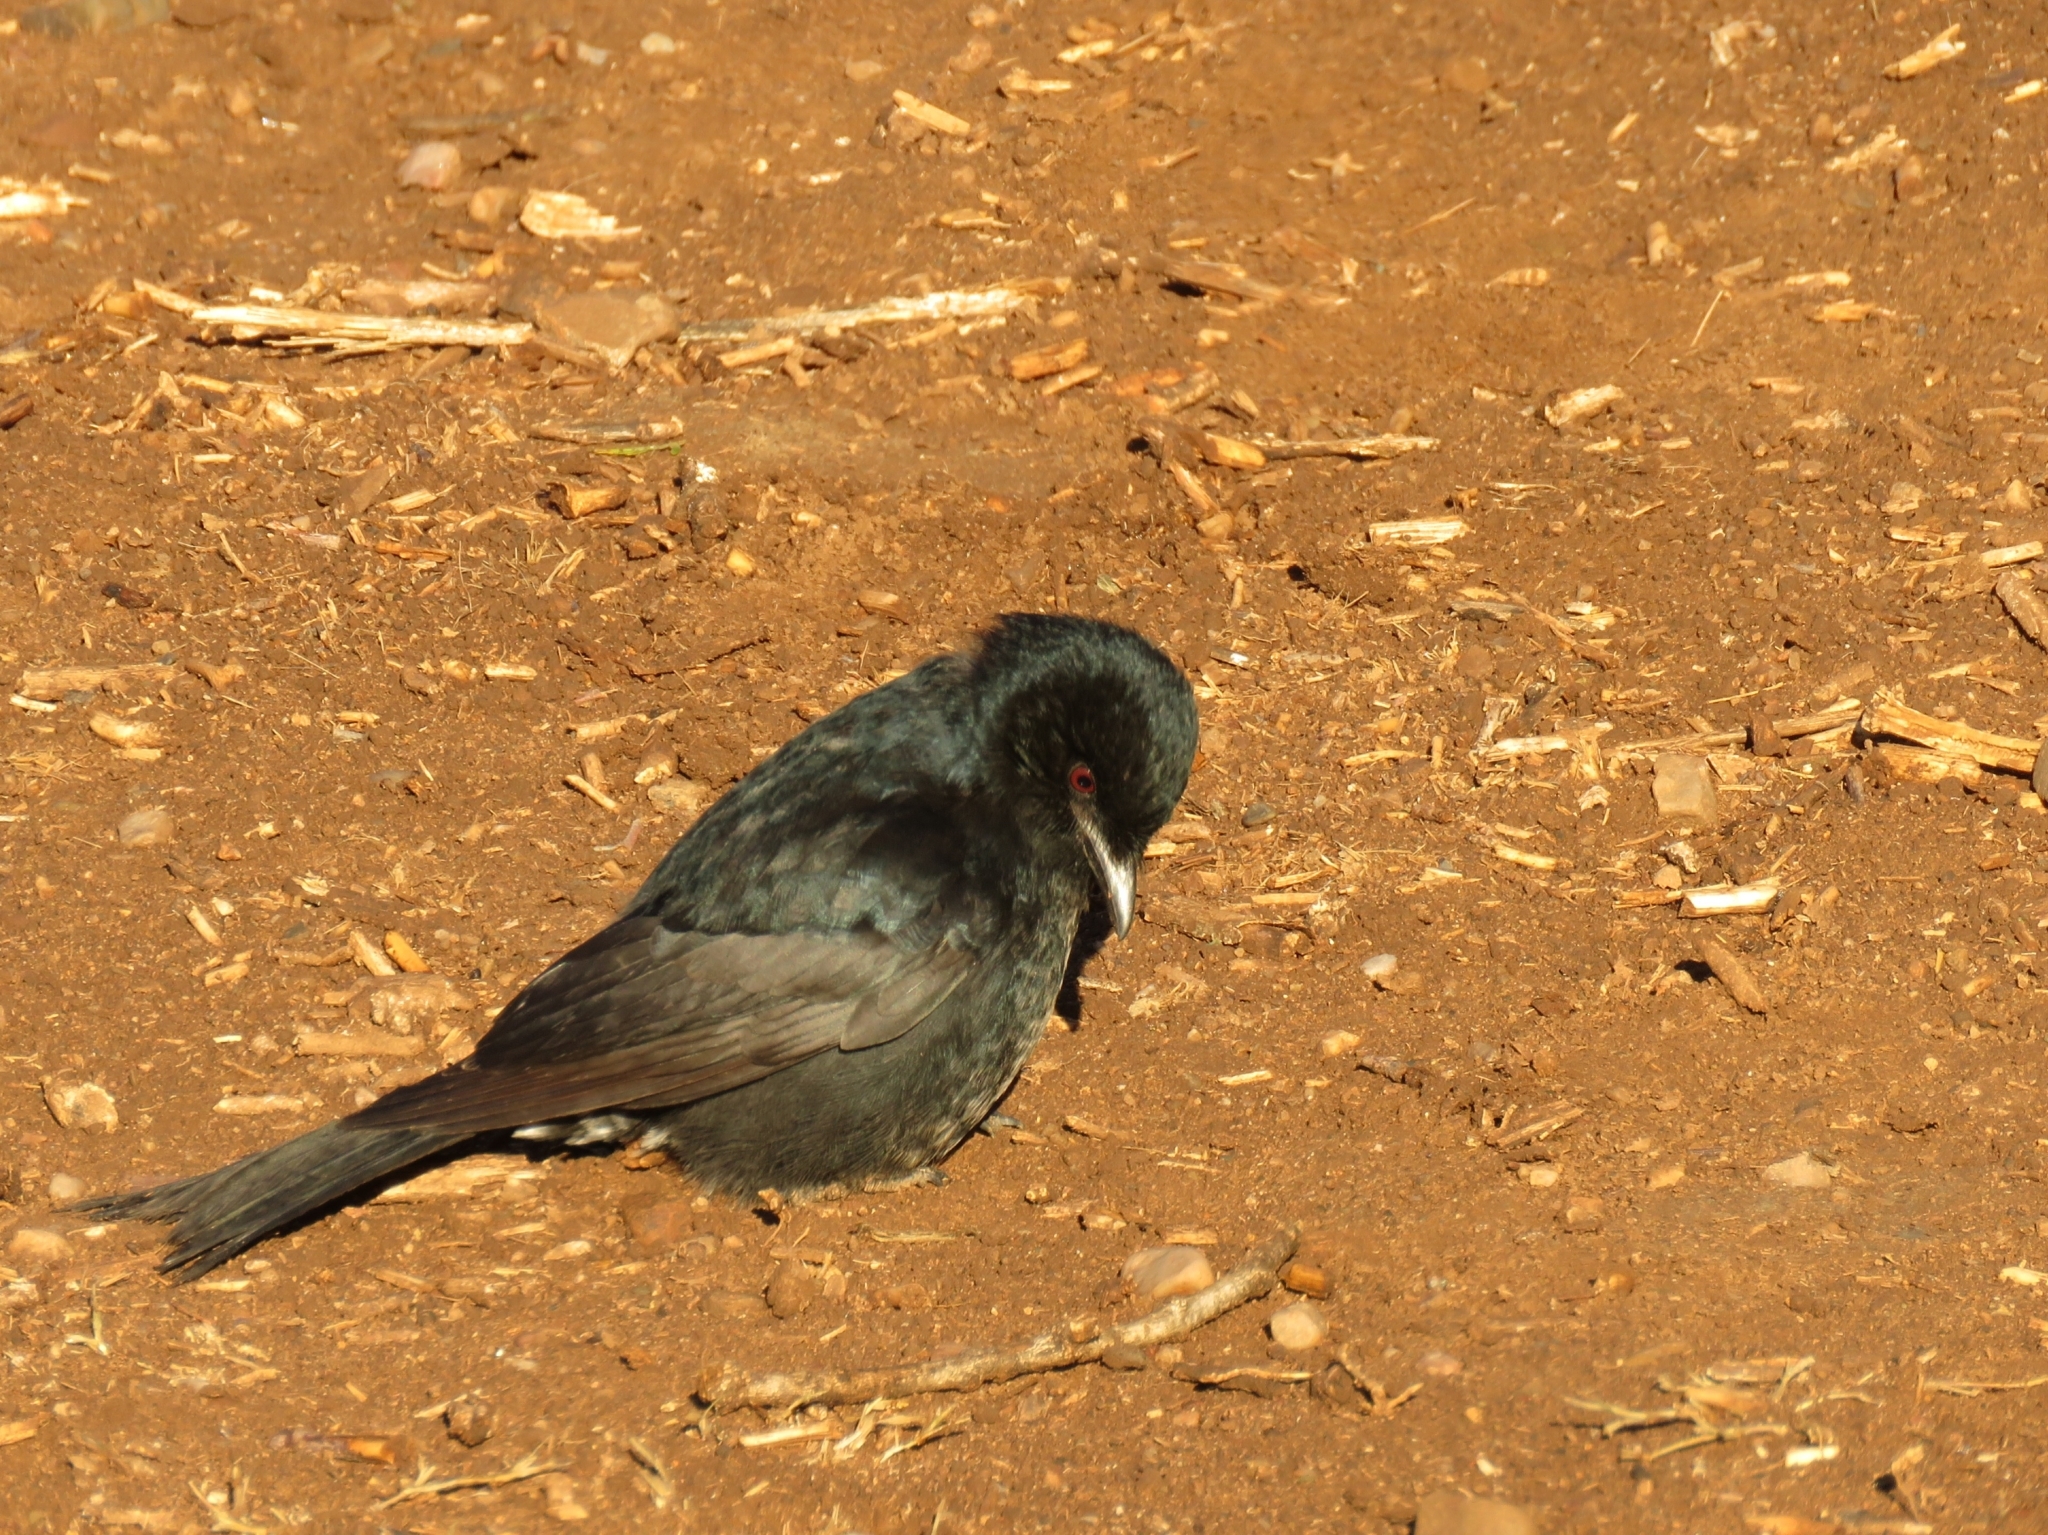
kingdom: Animalia
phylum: Chordata
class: Aves
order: Passeriformes
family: Dicruridae
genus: Dicrurus
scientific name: Dicrurus adsimilis
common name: Fork-tailed drongo
